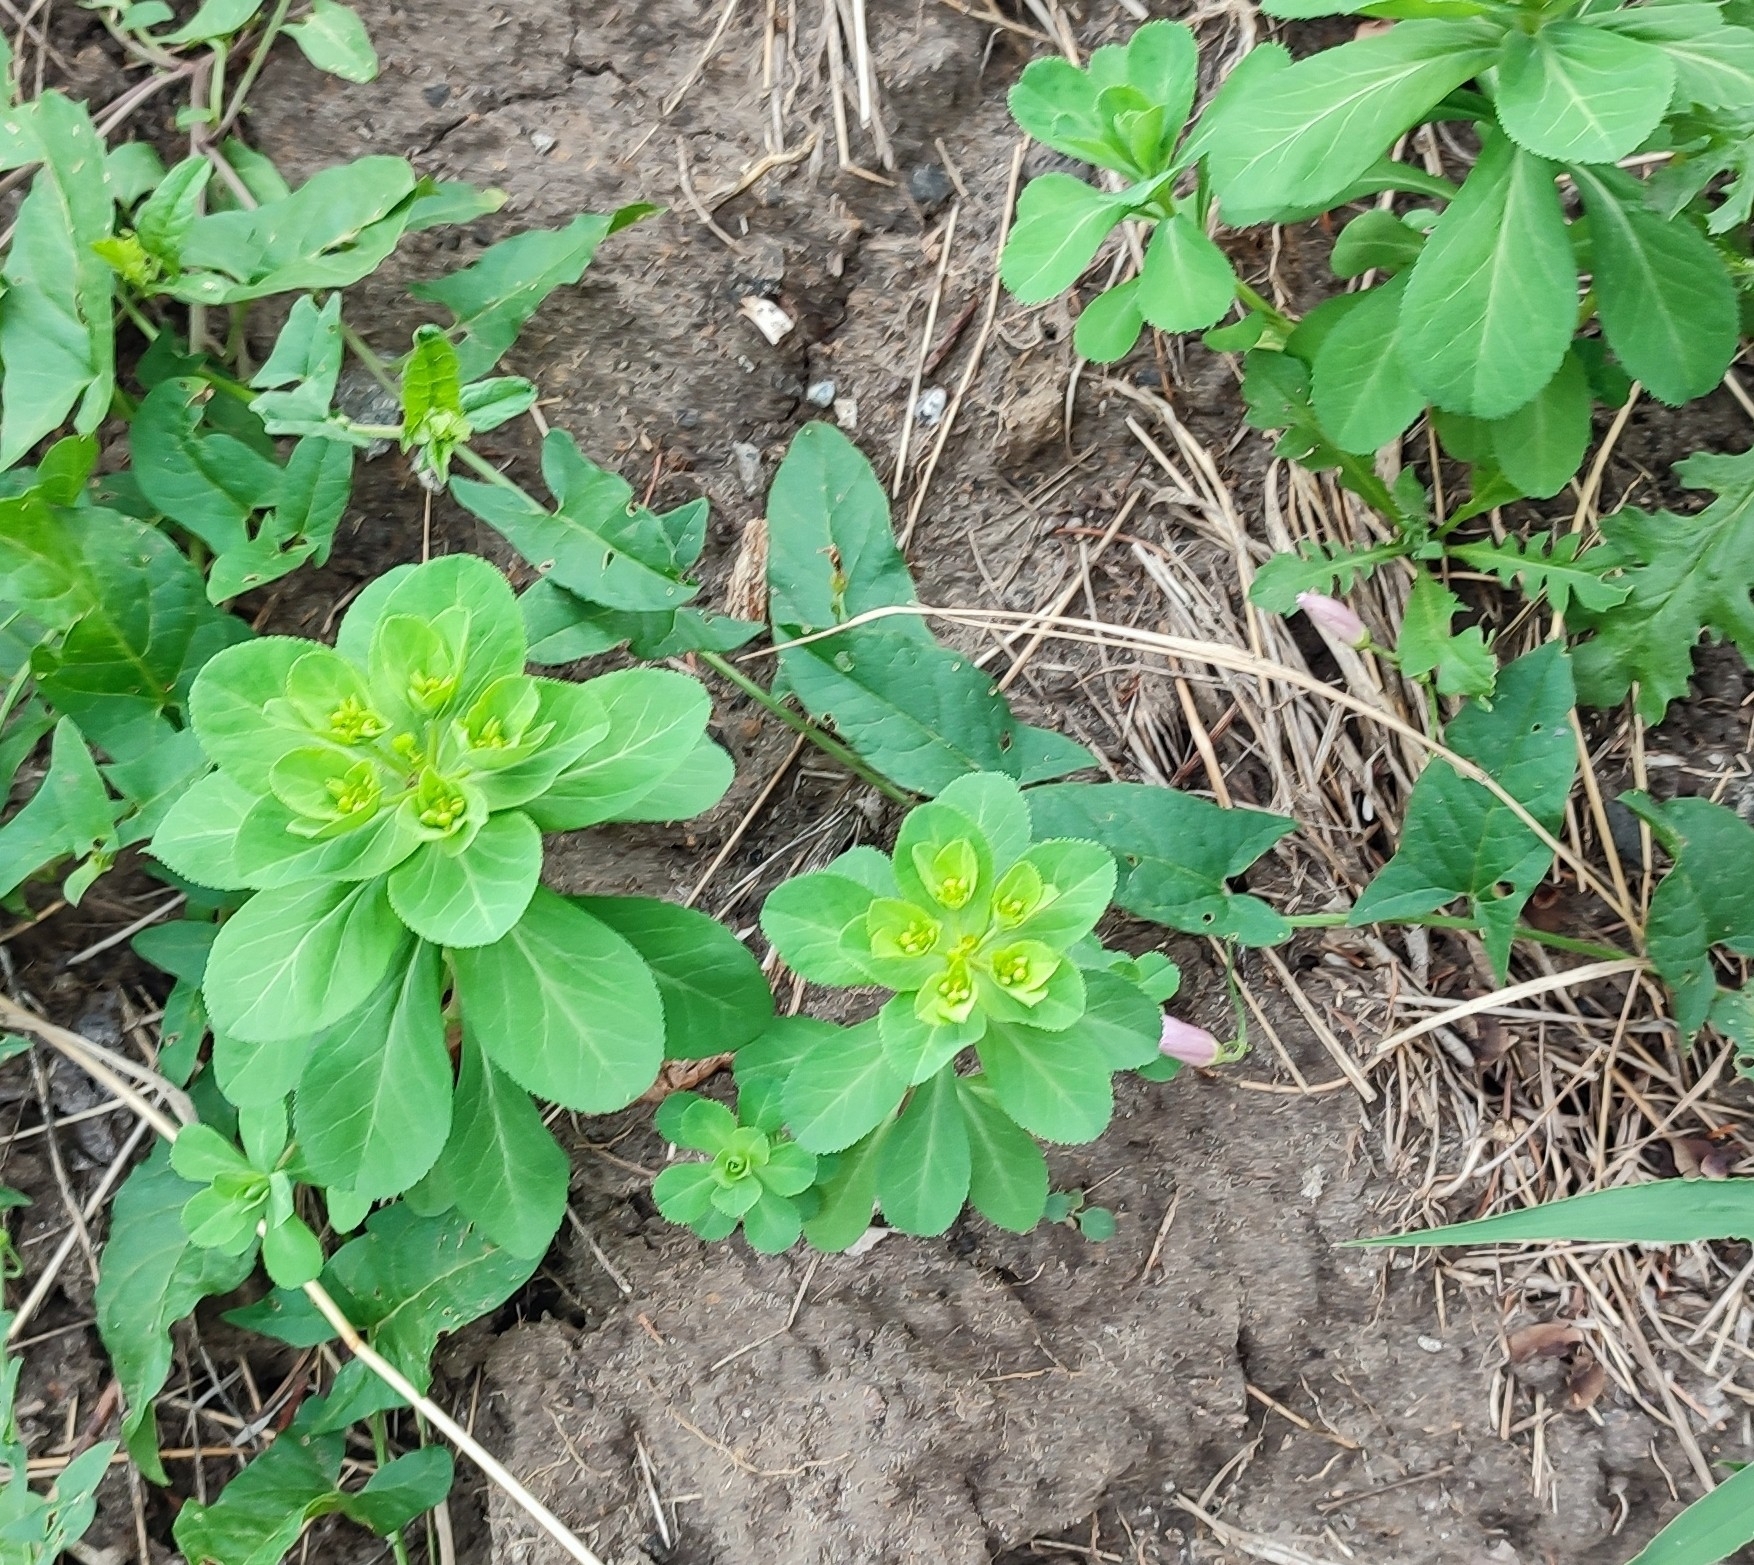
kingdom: Plantae
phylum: Tracheophyta
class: Magnoliopsida
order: Malpighiales
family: Euphorbiaceae
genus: Euphorbia
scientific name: Euphorbia helioscopia
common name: Sun spurge
